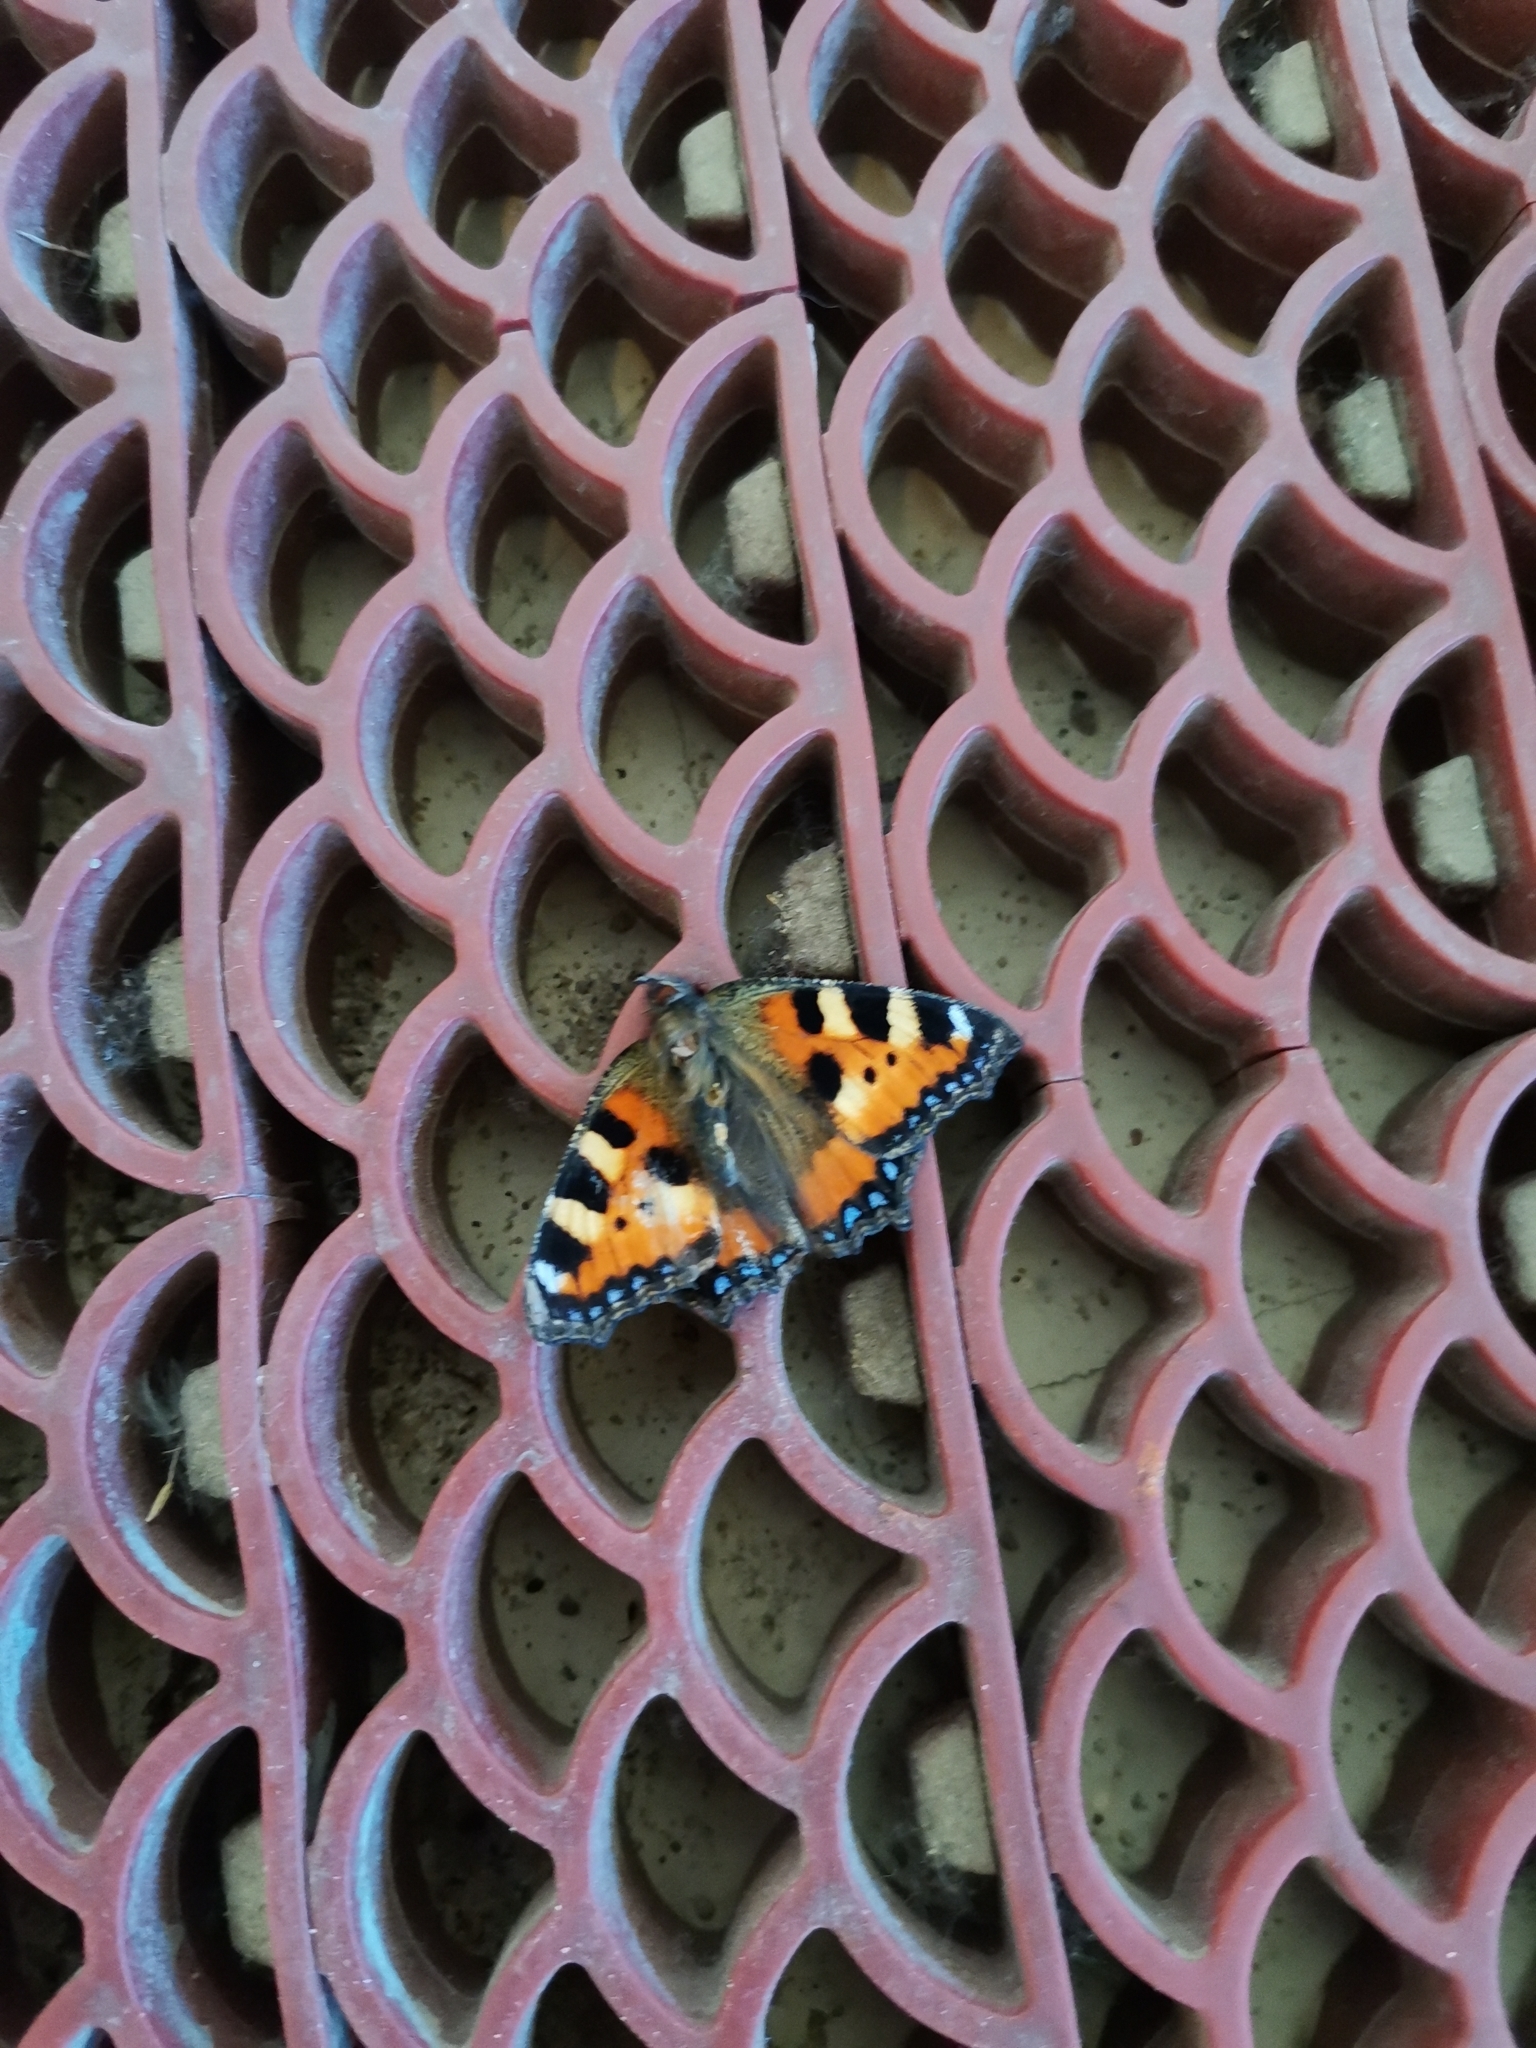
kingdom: Animalia
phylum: Arthropoda
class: Insecta
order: Lepidoptera
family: Nymphalidae
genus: Aglais
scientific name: Aglais urticae
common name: Small tortoiseshell
